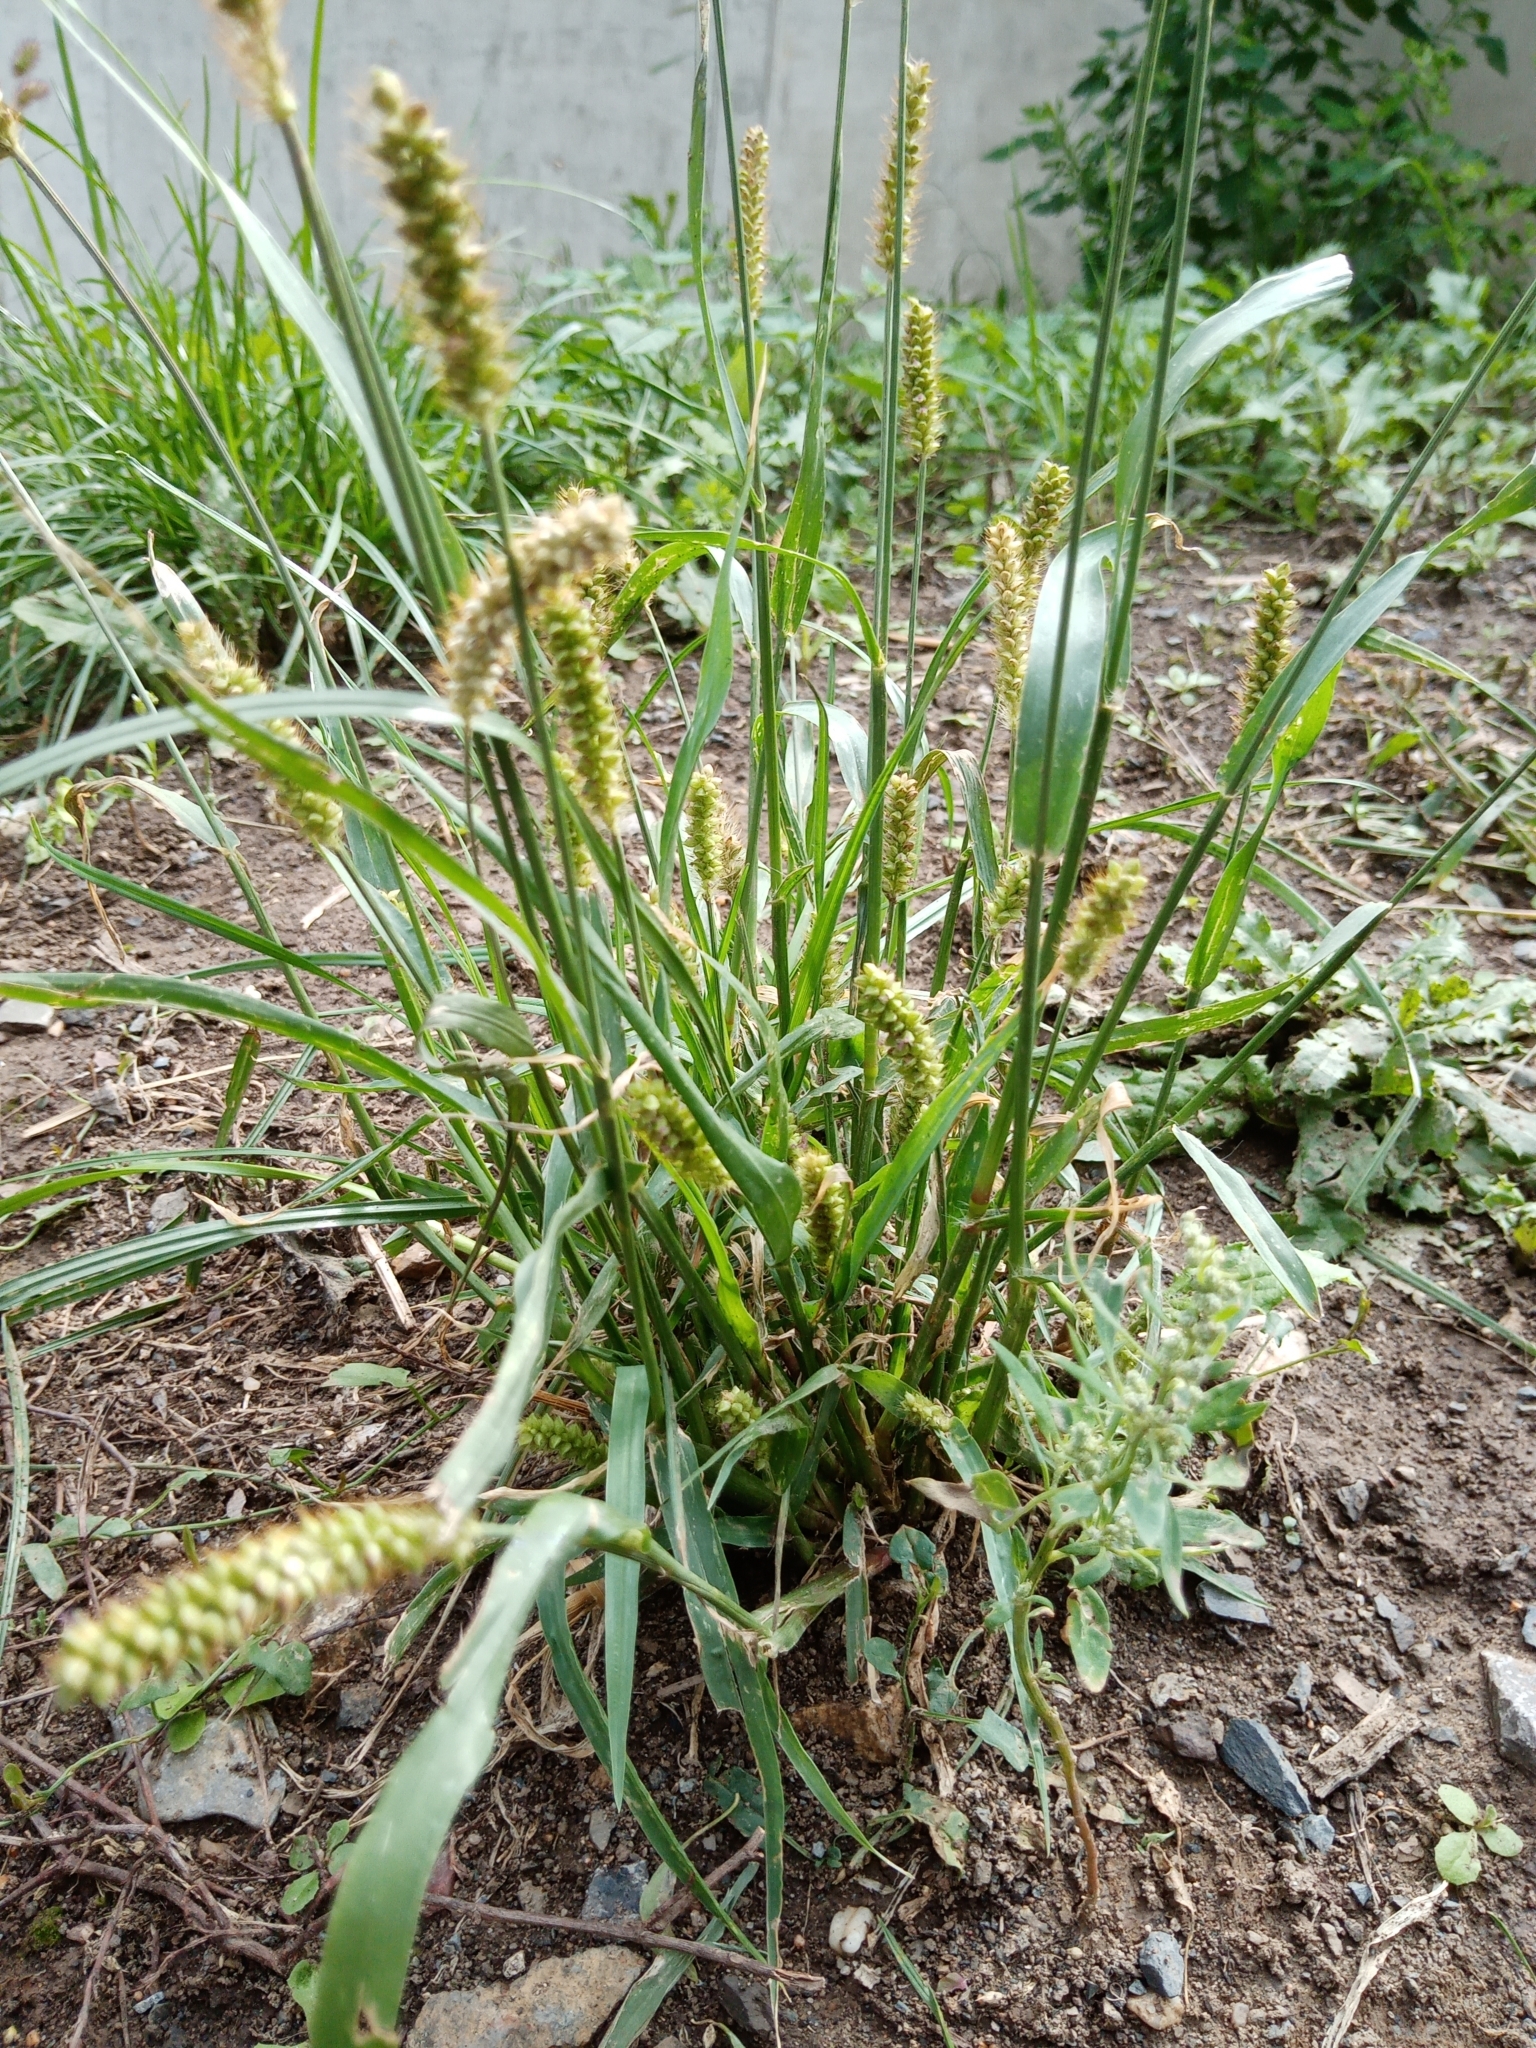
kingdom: Plantae
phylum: Tracheophyta
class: Liliopsida
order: Poales
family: Poaceae
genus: Setaria
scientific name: Setaria pumila
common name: Yellow bristle-grass
